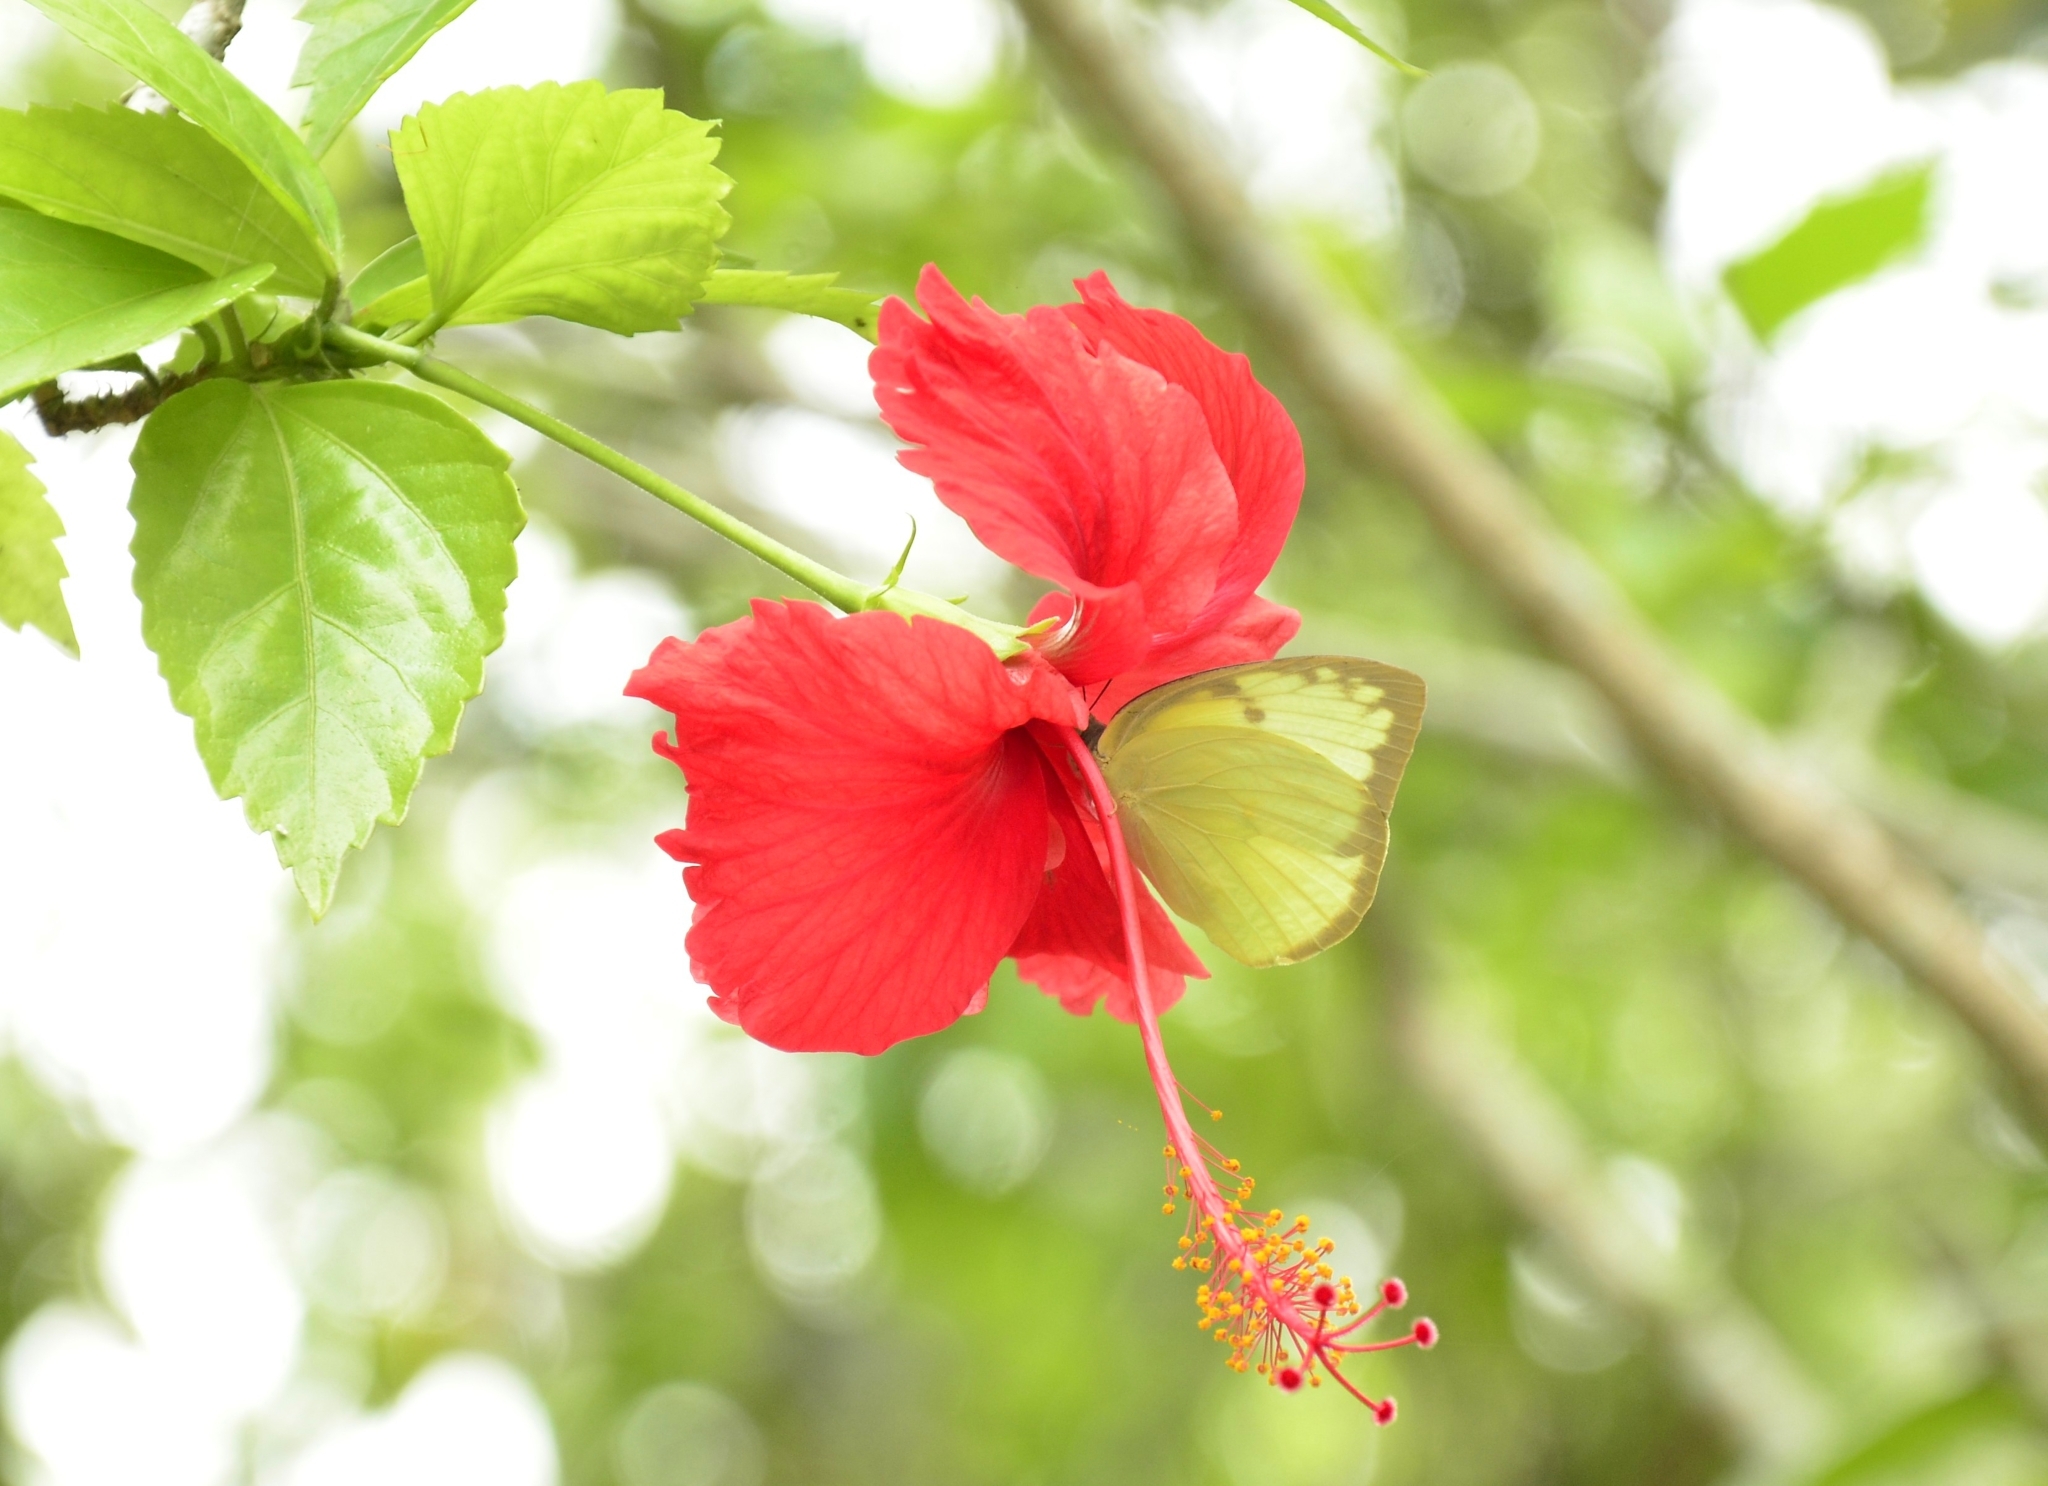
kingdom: Animalia
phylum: Arthropoda
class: Insecta
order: Lepidoptera
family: Pieridae
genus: Catopsilia
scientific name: Catopsilia pomona
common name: Common emigrant
